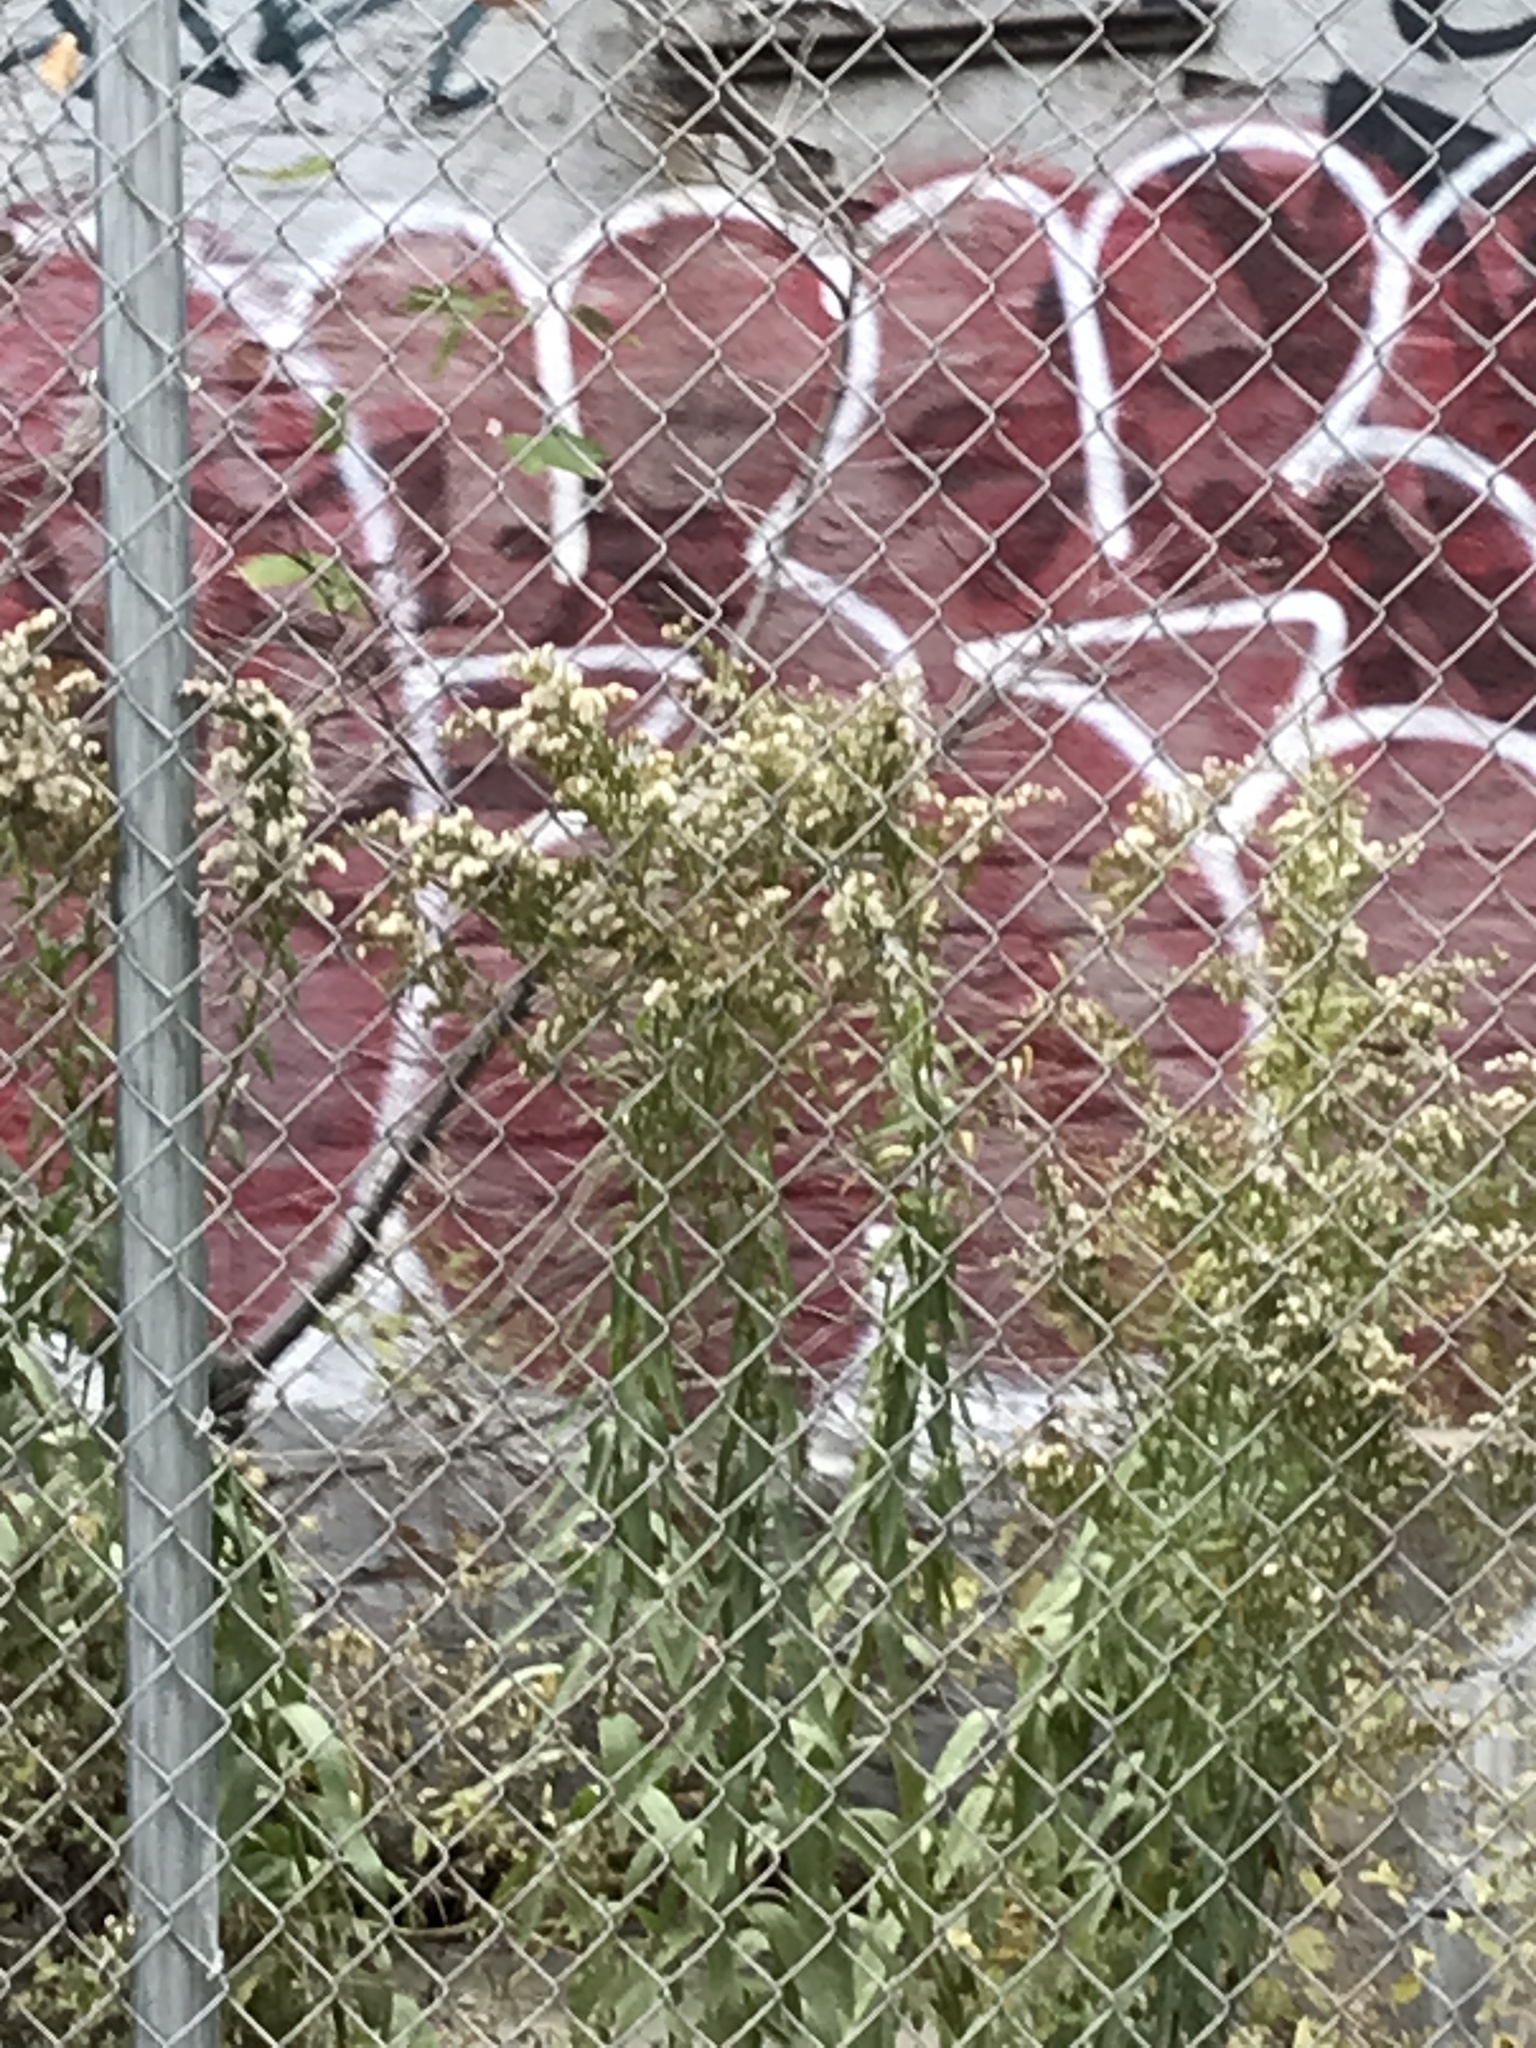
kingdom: Plantae
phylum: Tracheophyta
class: Magnoliopsida
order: Asterales
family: Asteraceae
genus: Erigeron
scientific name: Erigeron canadensis
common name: Canadian fleabane
